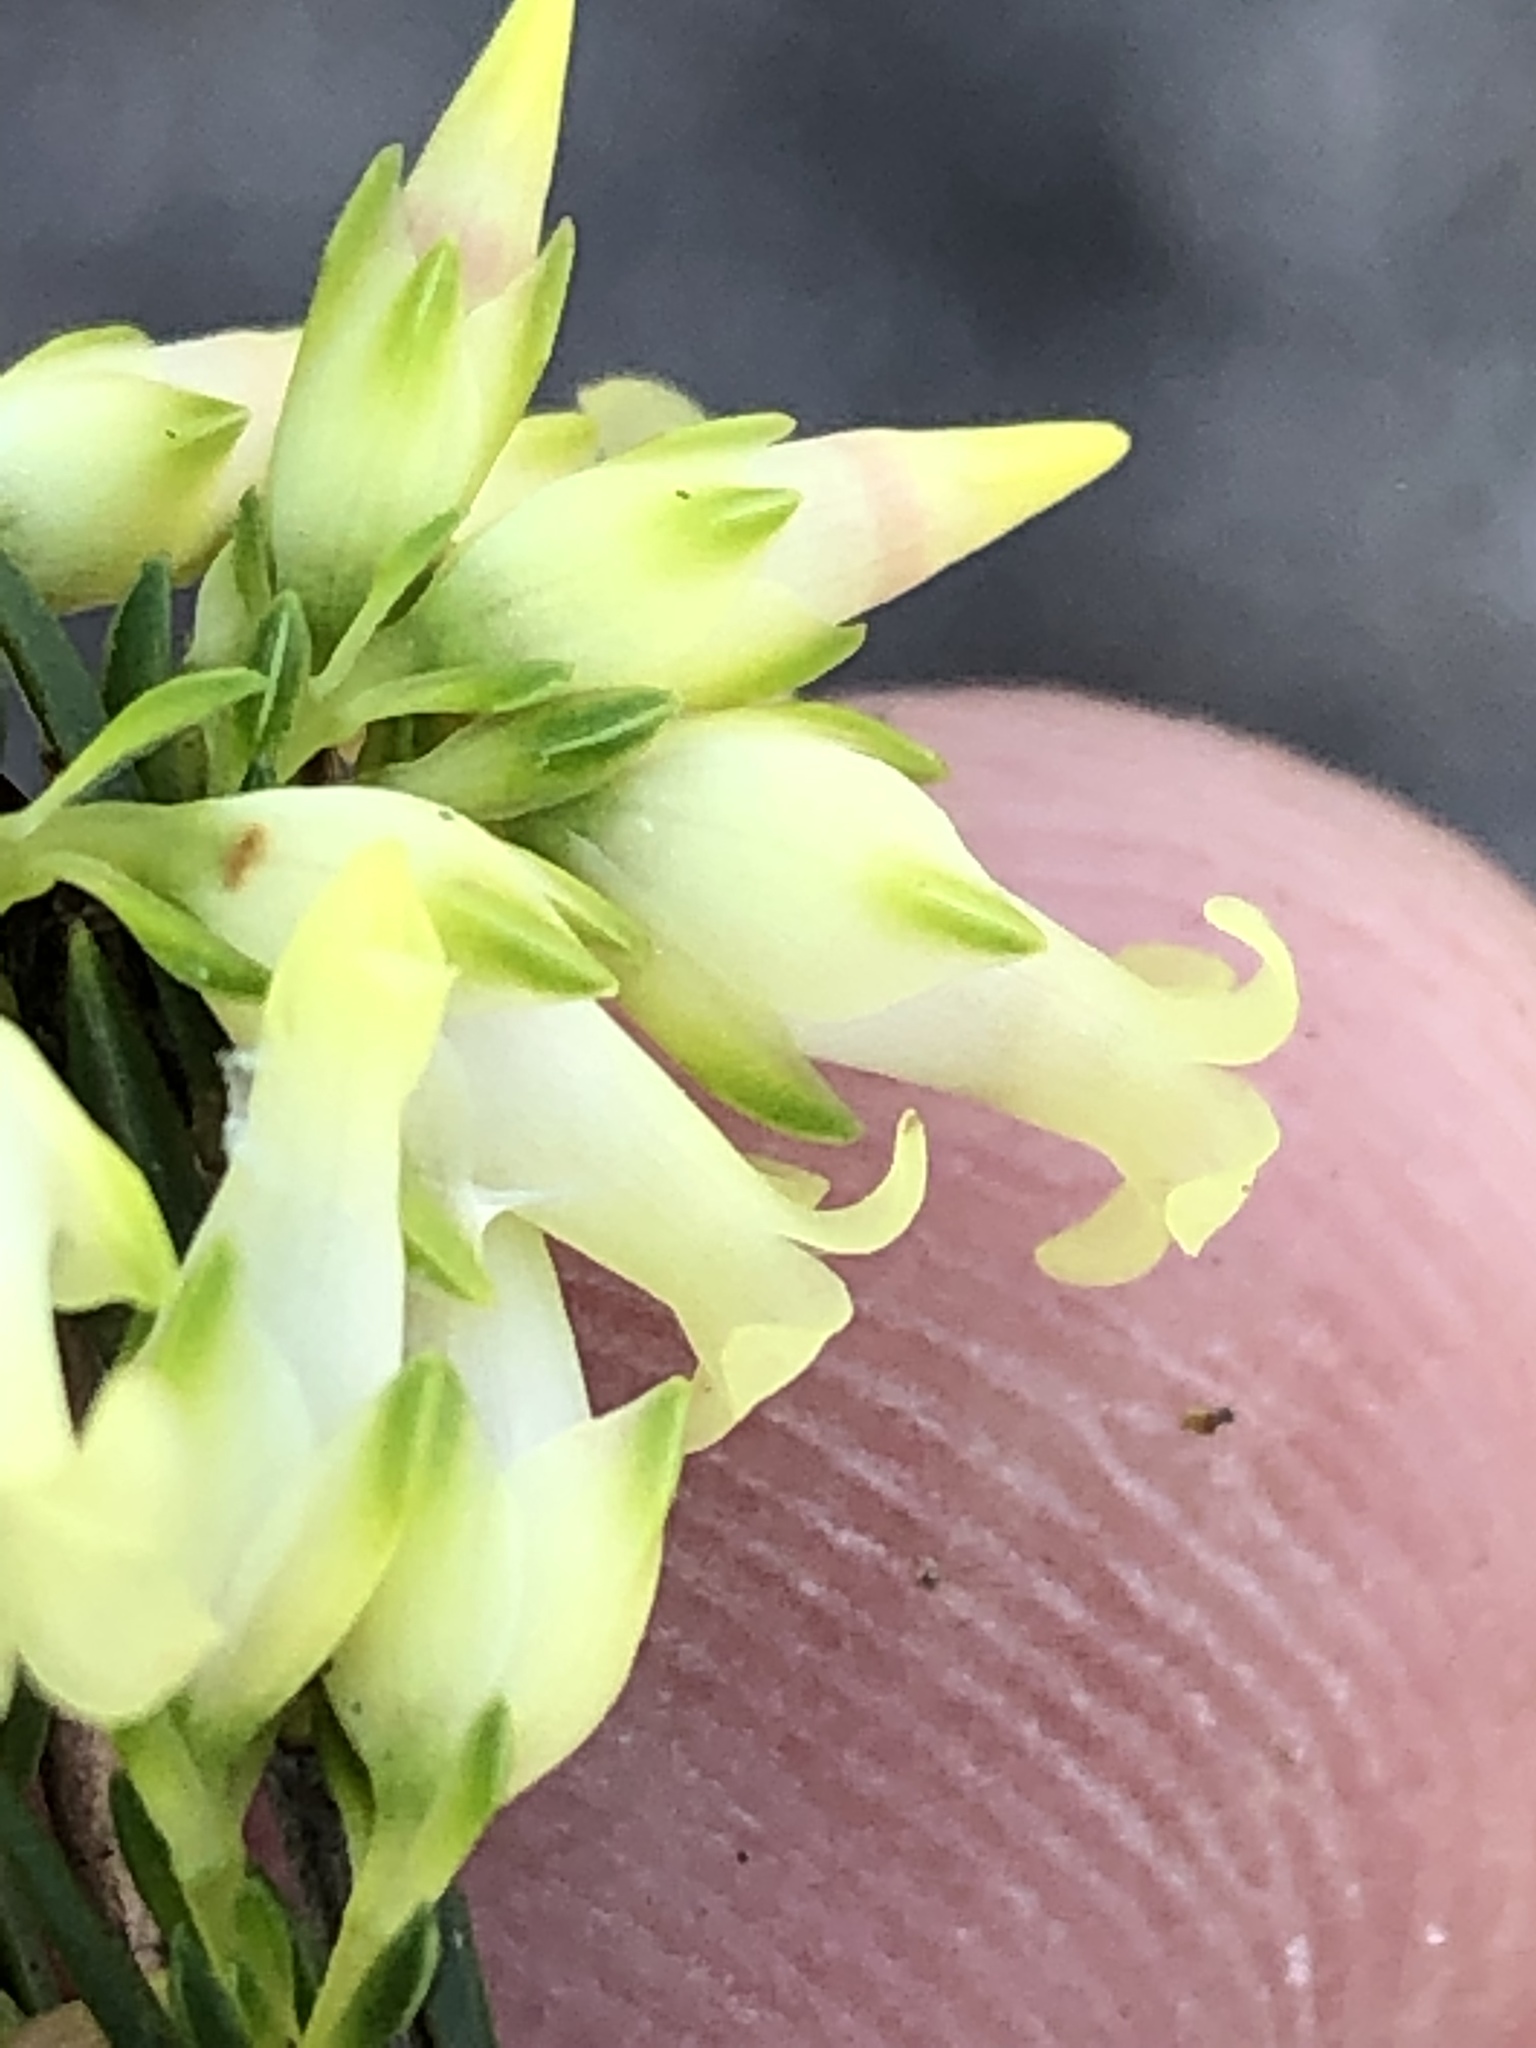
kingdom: Plantae
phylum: Tracheophyta
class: Magnoliopsida
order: Ericales
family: Ericaceae
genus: Erica
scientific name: Erica lutea
